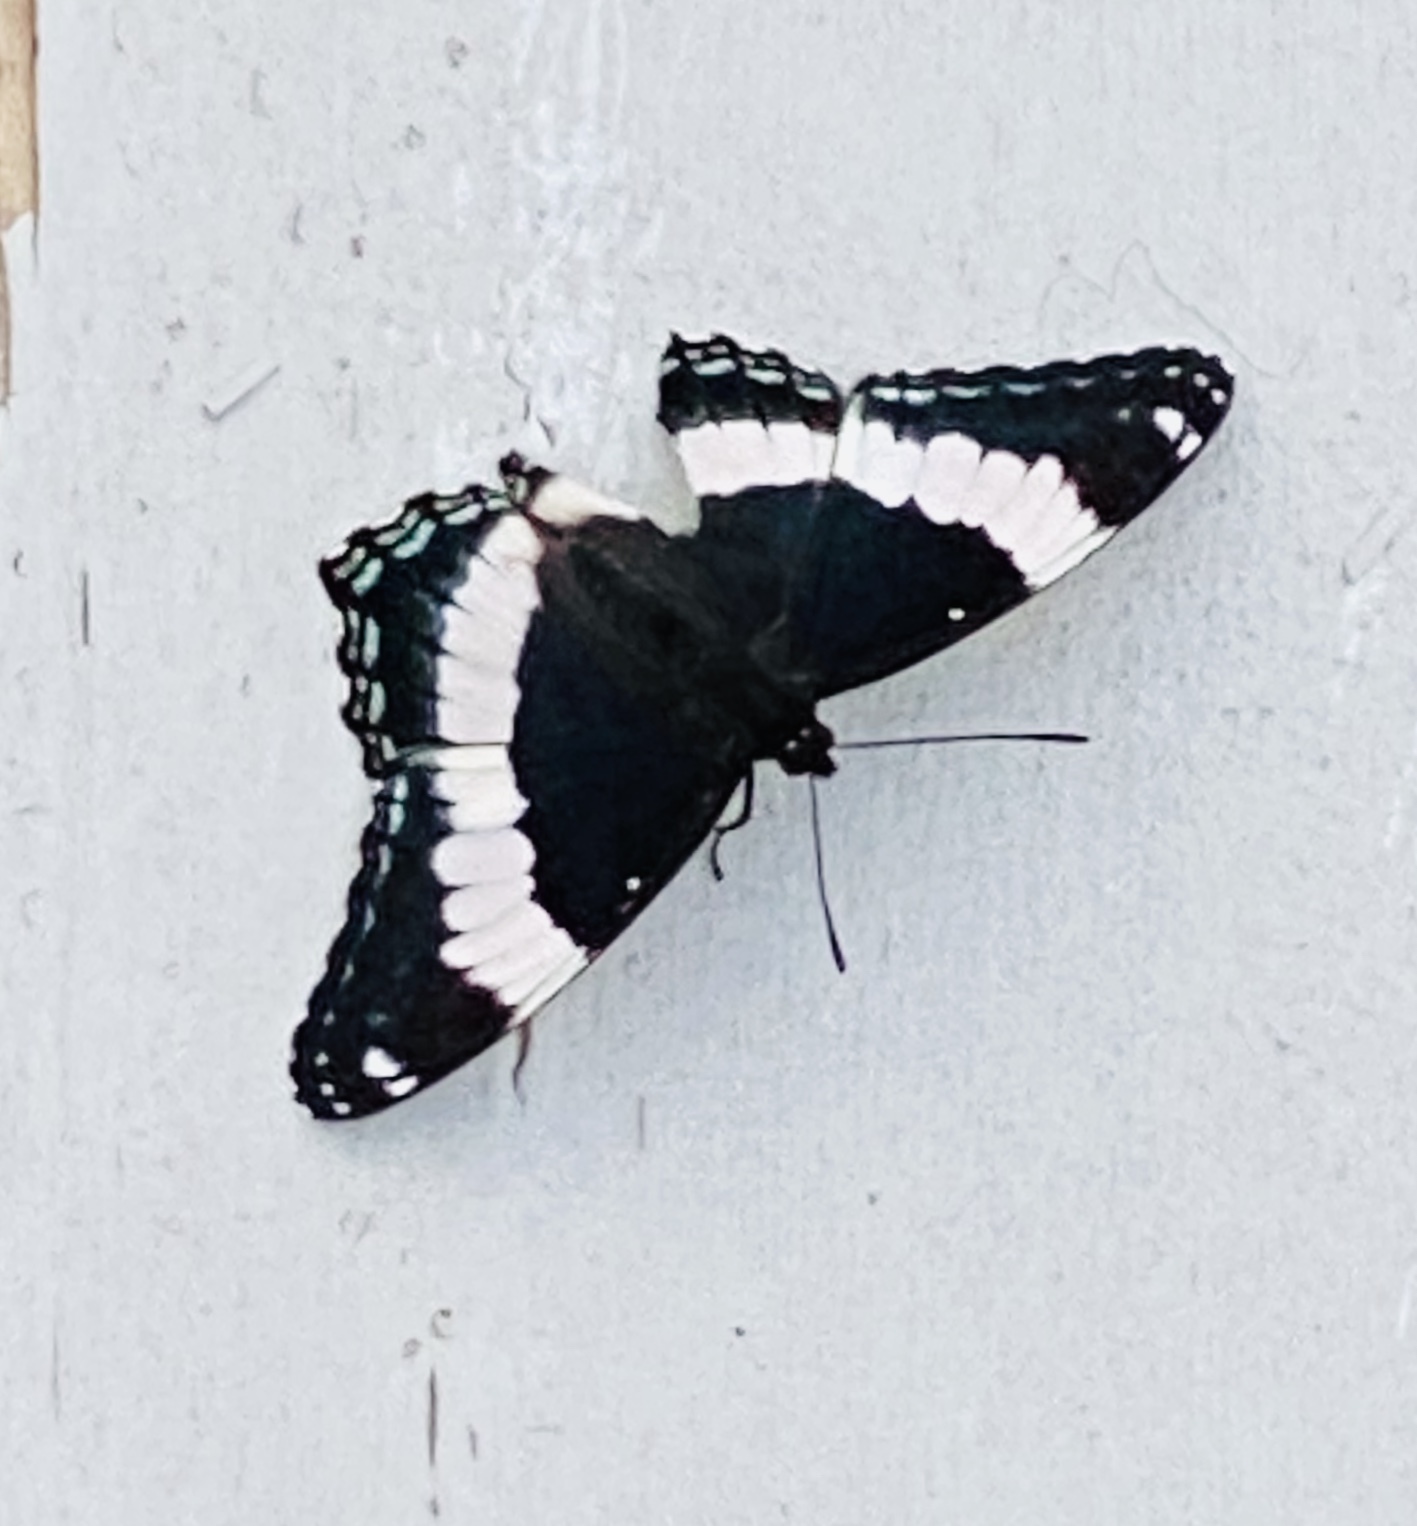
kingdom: Animalia
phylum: Arthropoda
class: Insecta
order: Lepidoptera
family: Nymphalidae
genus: Limenitis
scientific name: Limenitis arthemis
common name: Red-spotted admiral
